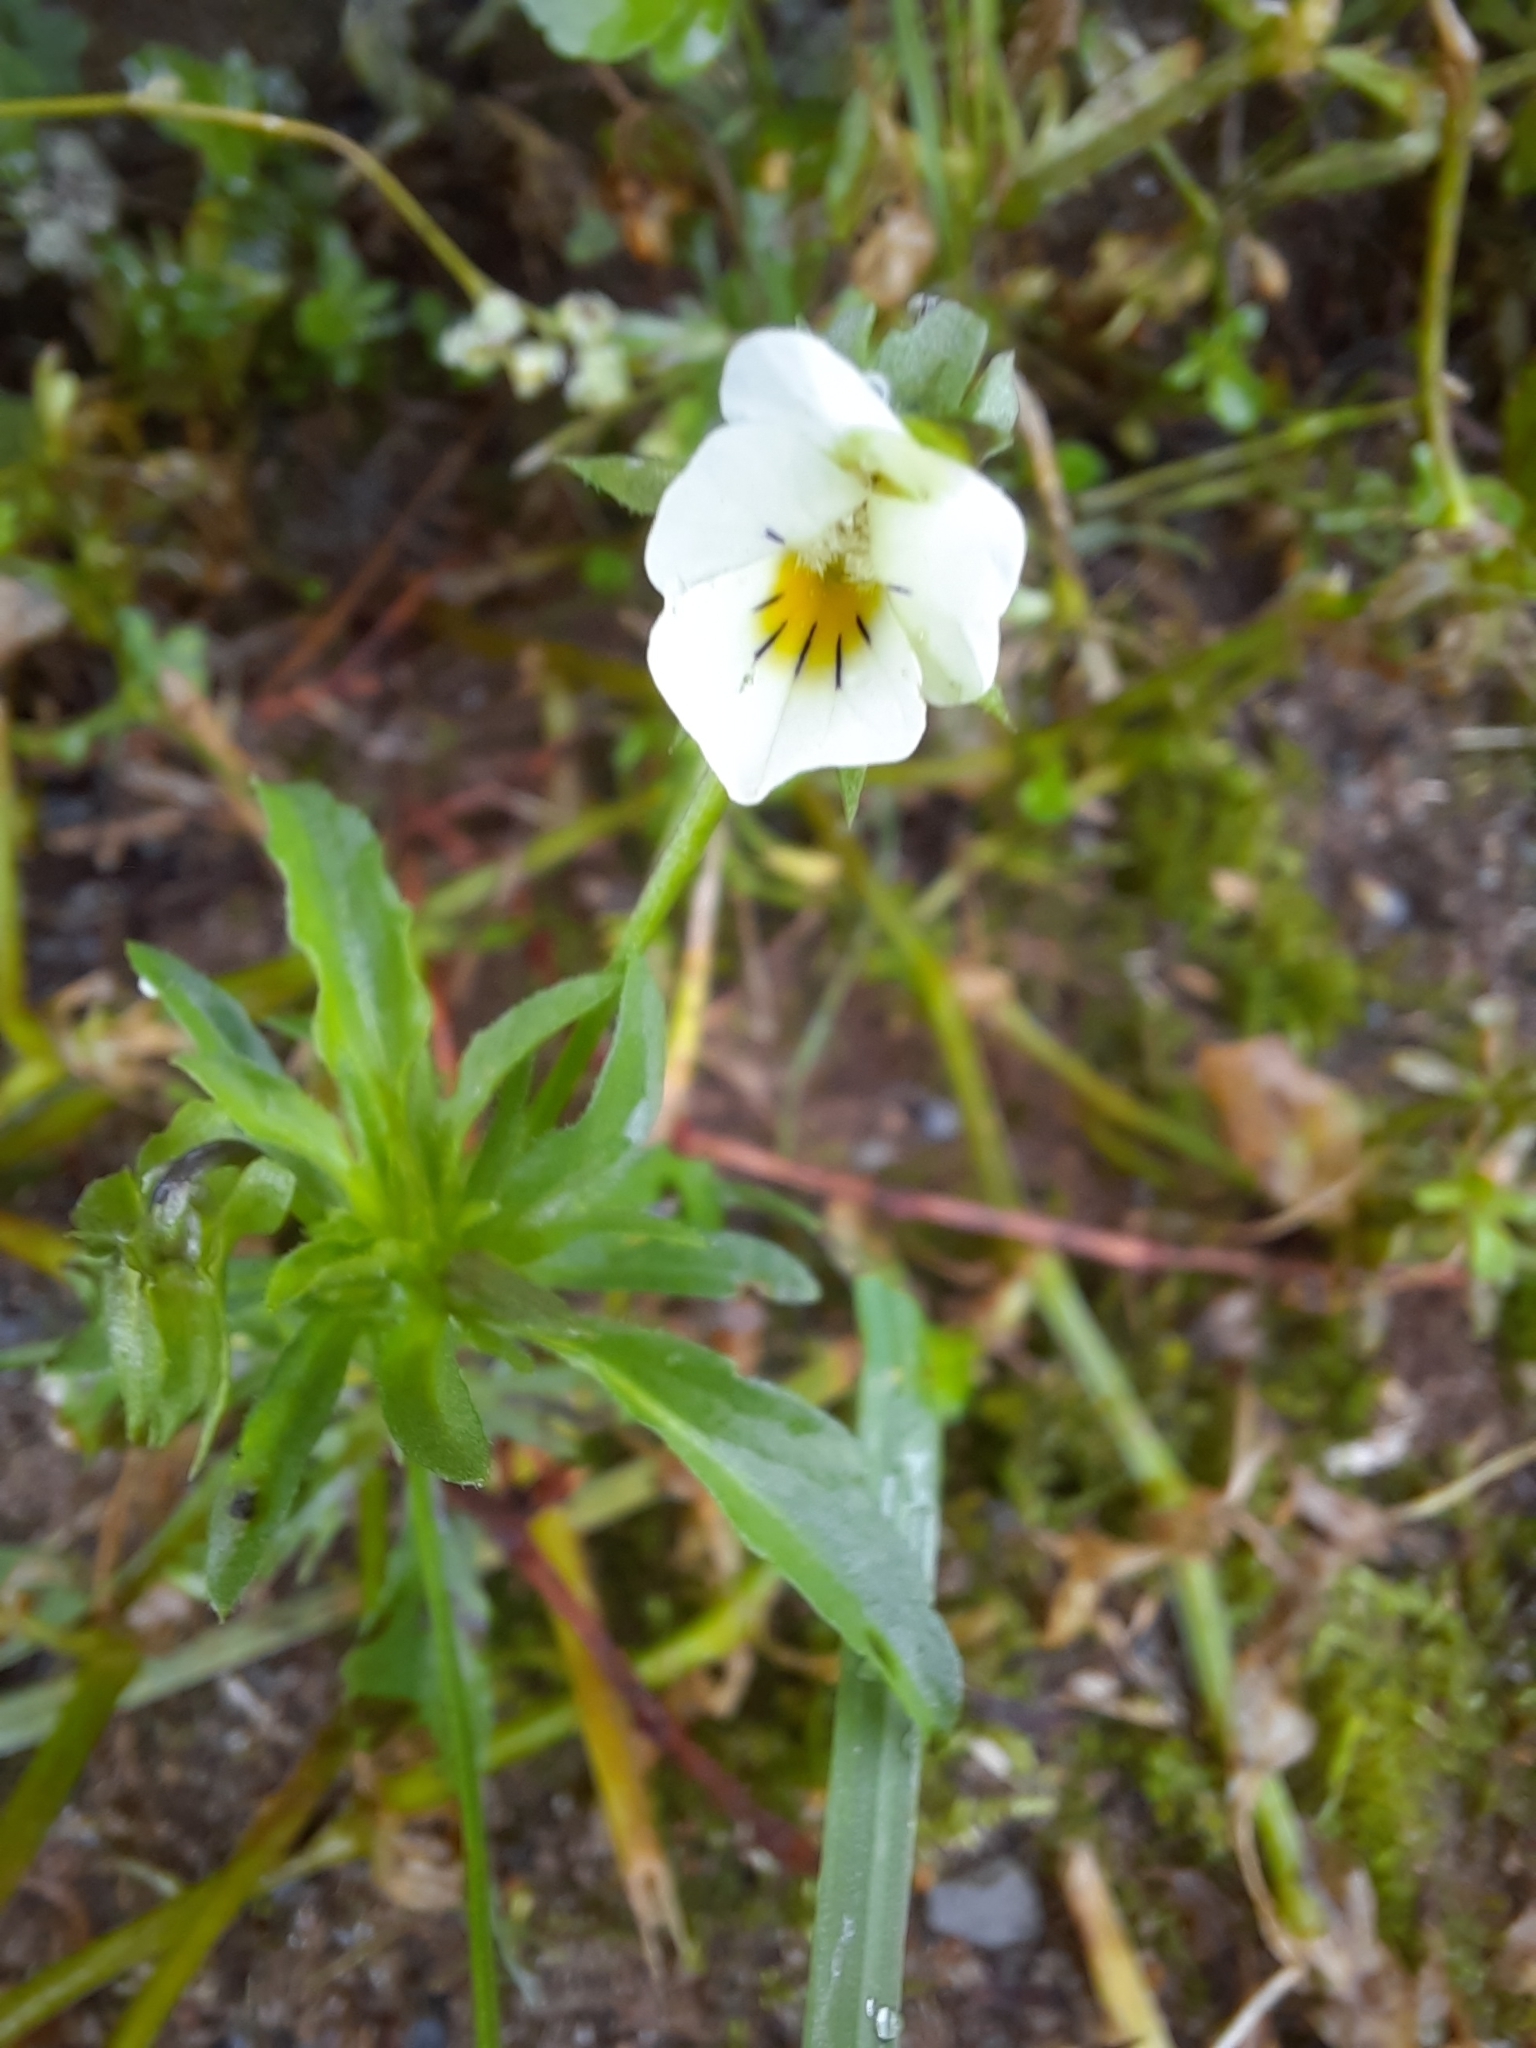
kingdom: Plantae
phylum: Tracheophyta
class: Magnoliopsida
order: Malpighiales
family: Violaceae
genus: Viola
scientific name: Viola arvensis
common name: Field pansy
